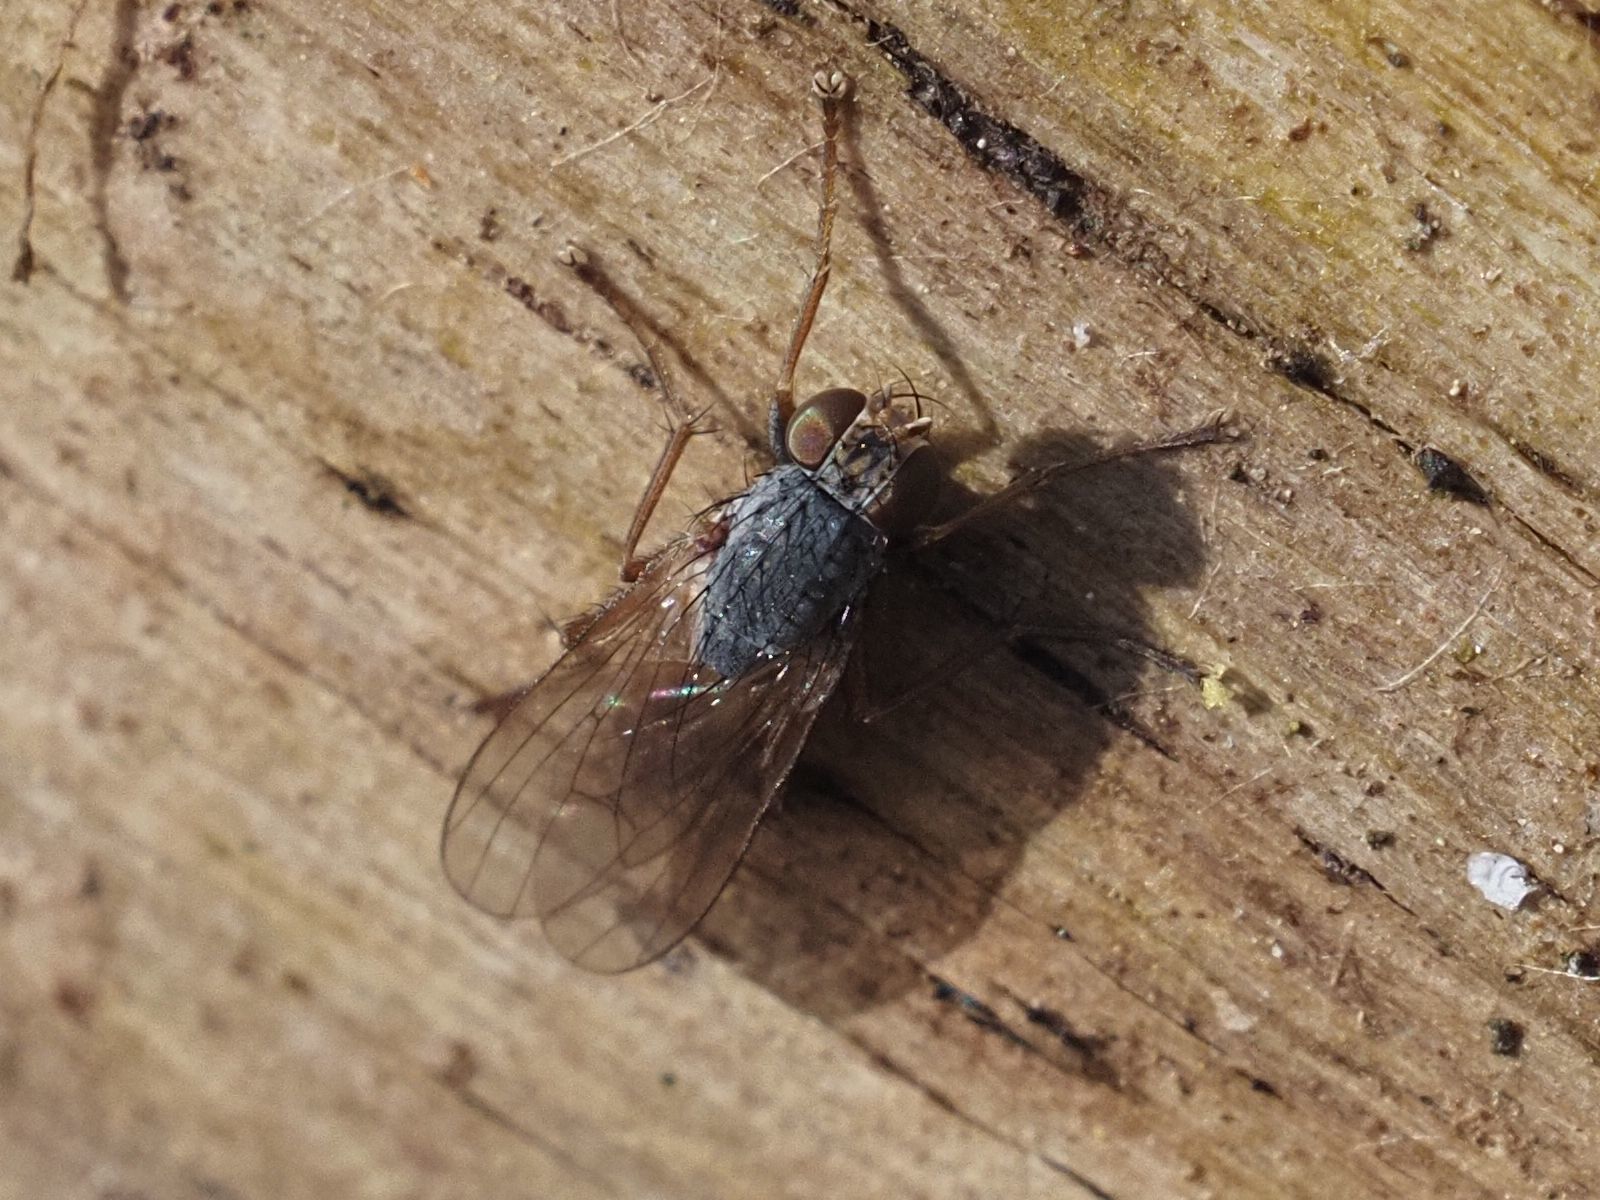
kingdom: Animalia
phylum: Arthropoda
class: Insecta
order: Diptera
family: Muscidae
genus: Lispocephala
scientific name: Lispocephala brachialis
